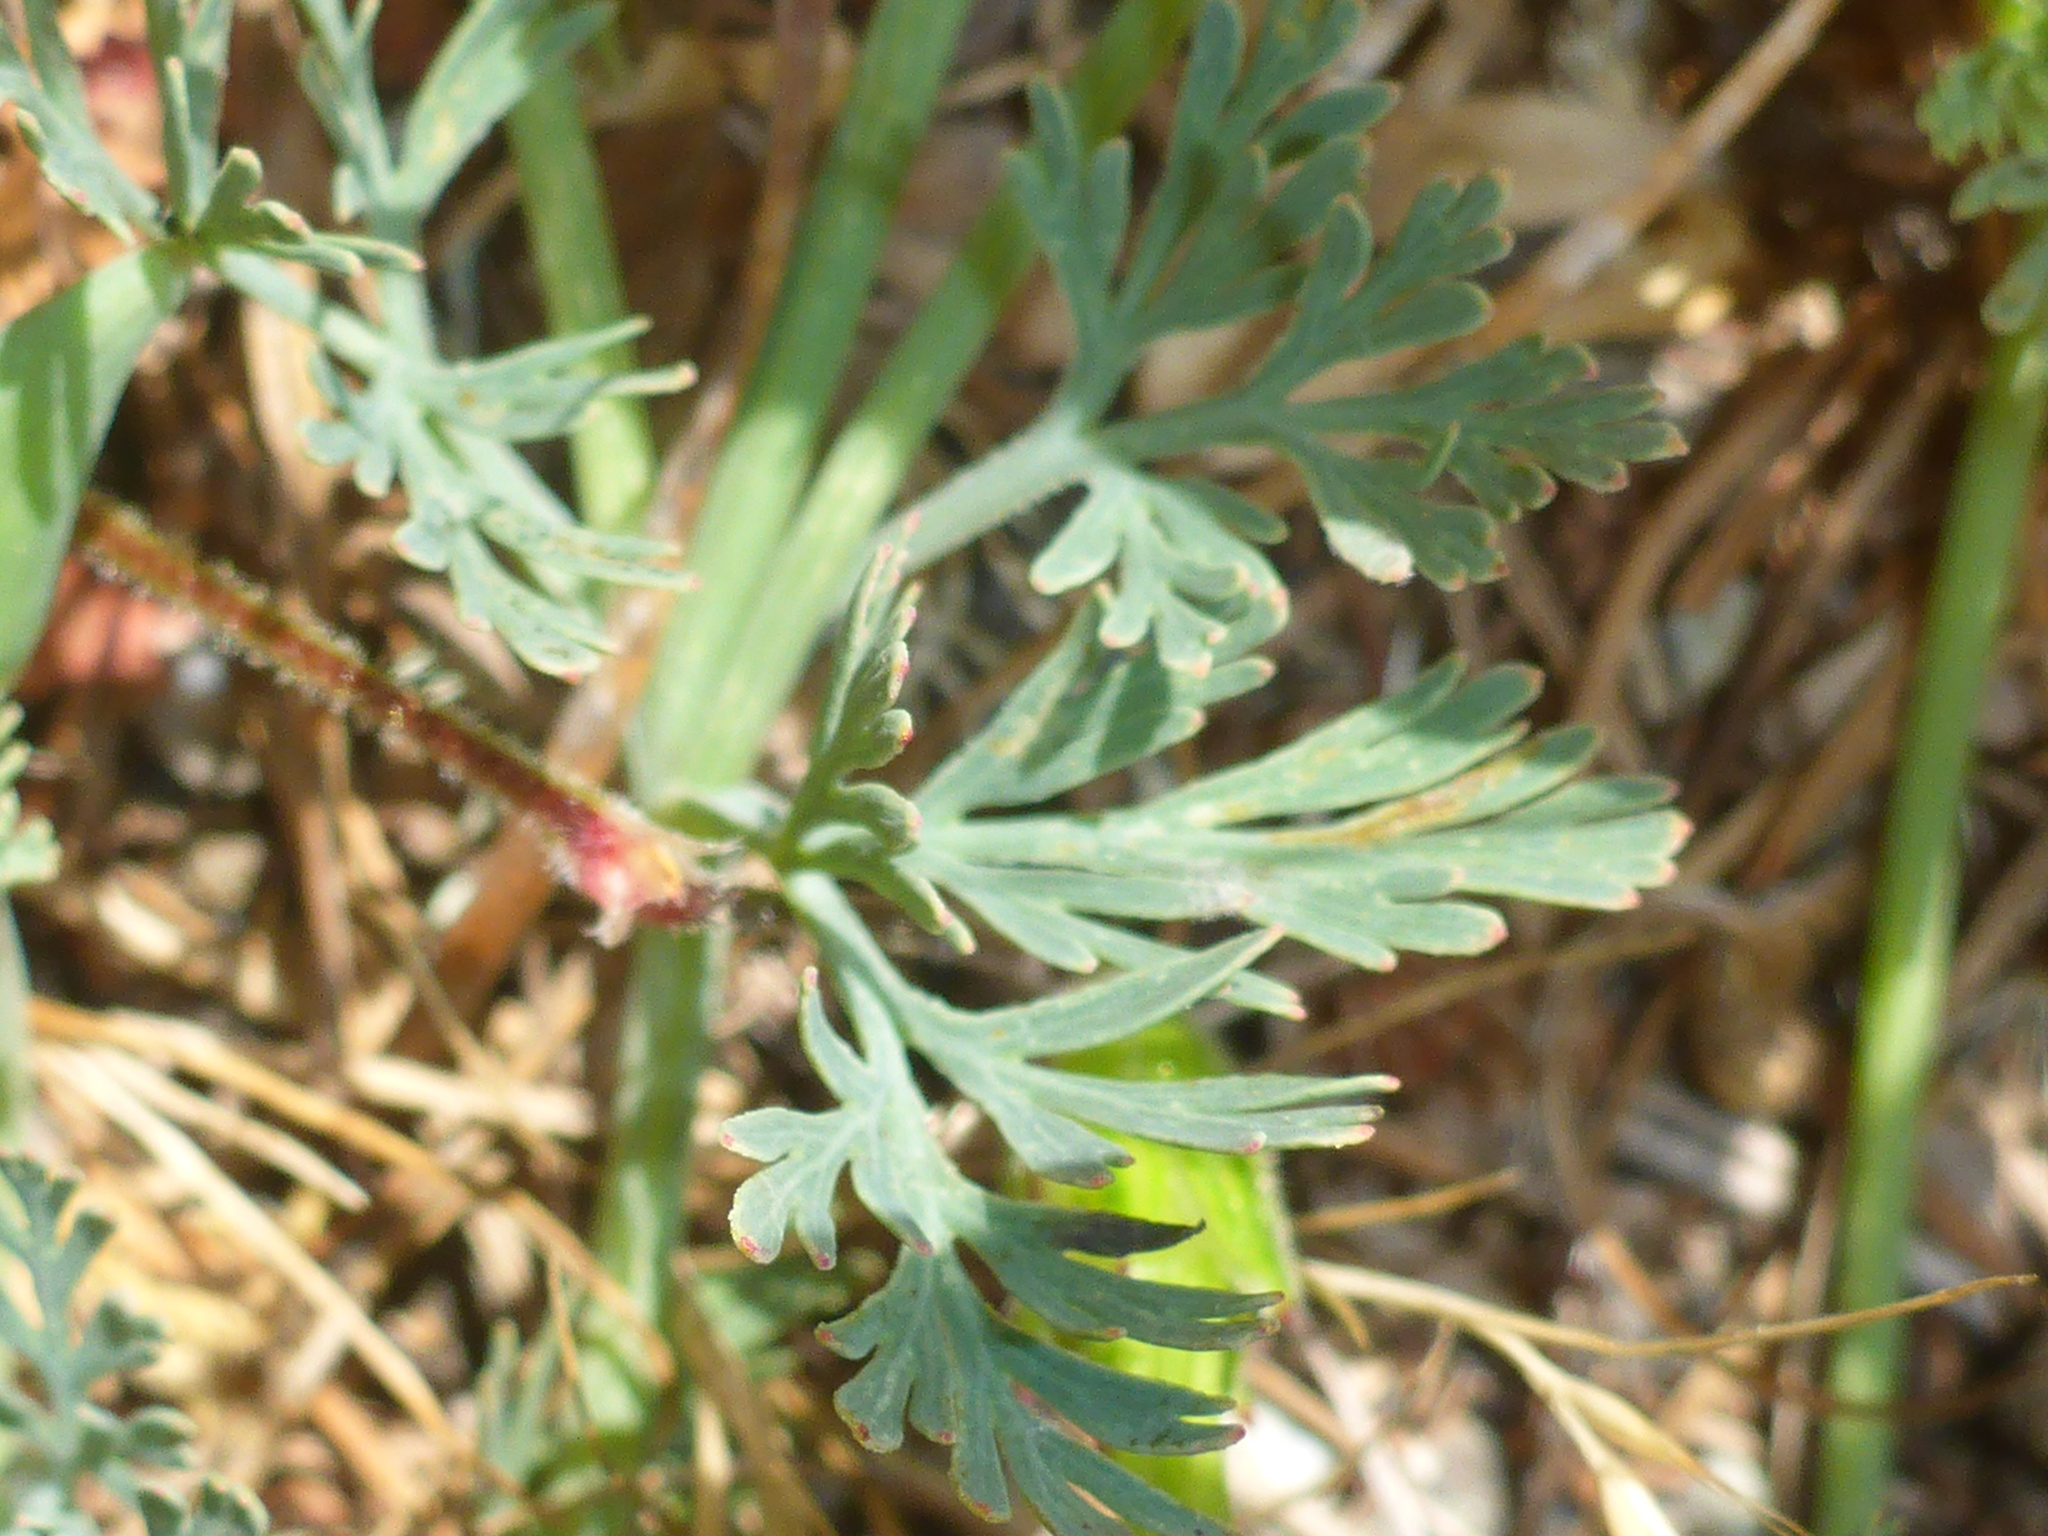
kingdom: Plantae
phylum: Tracheophyta
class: Magnoliopsida
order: Geraniales
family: Geraniaceae
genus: Erodium
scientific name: Erodium botrys
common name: Mediterranean stork's-bill
